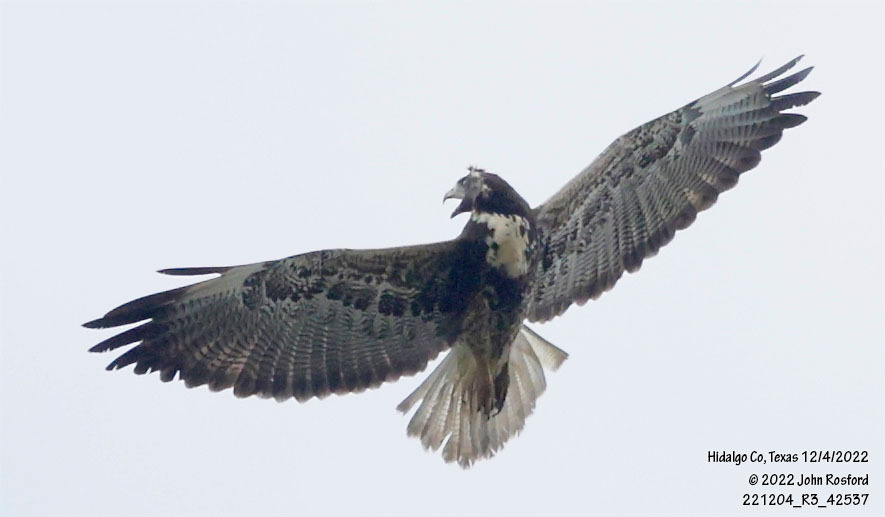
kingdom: Animalia
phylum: Chordata
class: Aves
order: Accipitriformes
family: Accipitridae
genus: Buteo
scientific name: Buteo albicaudatus
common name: White-tailed hawk
